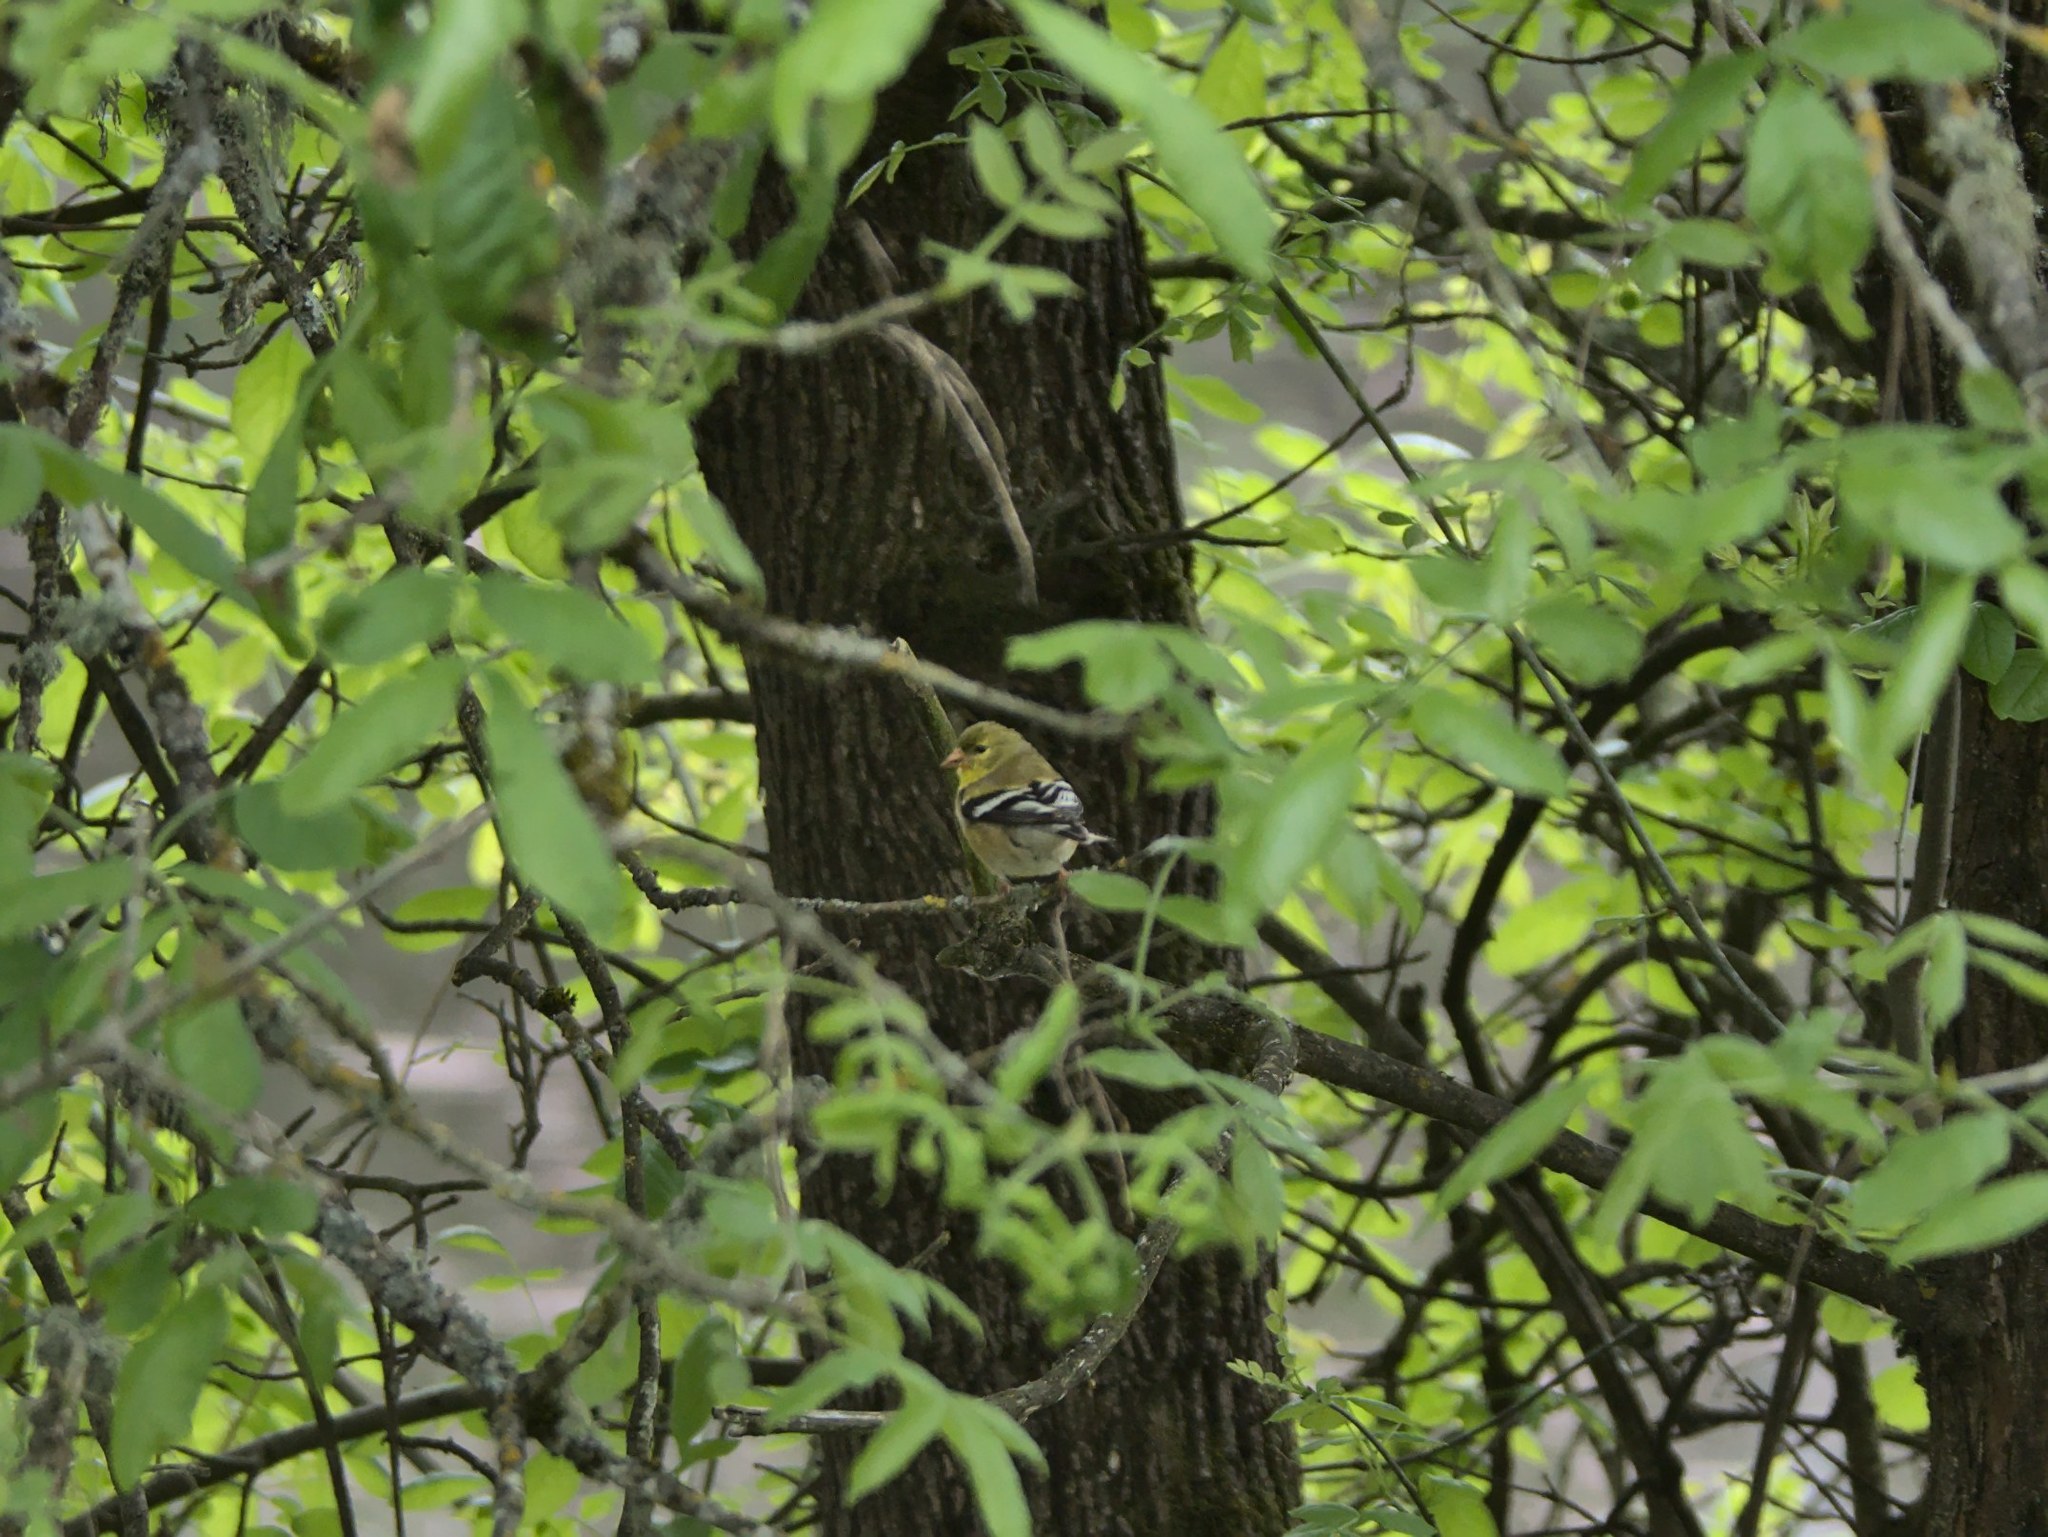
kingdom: Animalia
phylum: Chordata
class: Aves
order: Passeriformes
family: Fringillidae
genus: Spinus
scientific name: Spinus tristis
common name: American goldfinch
